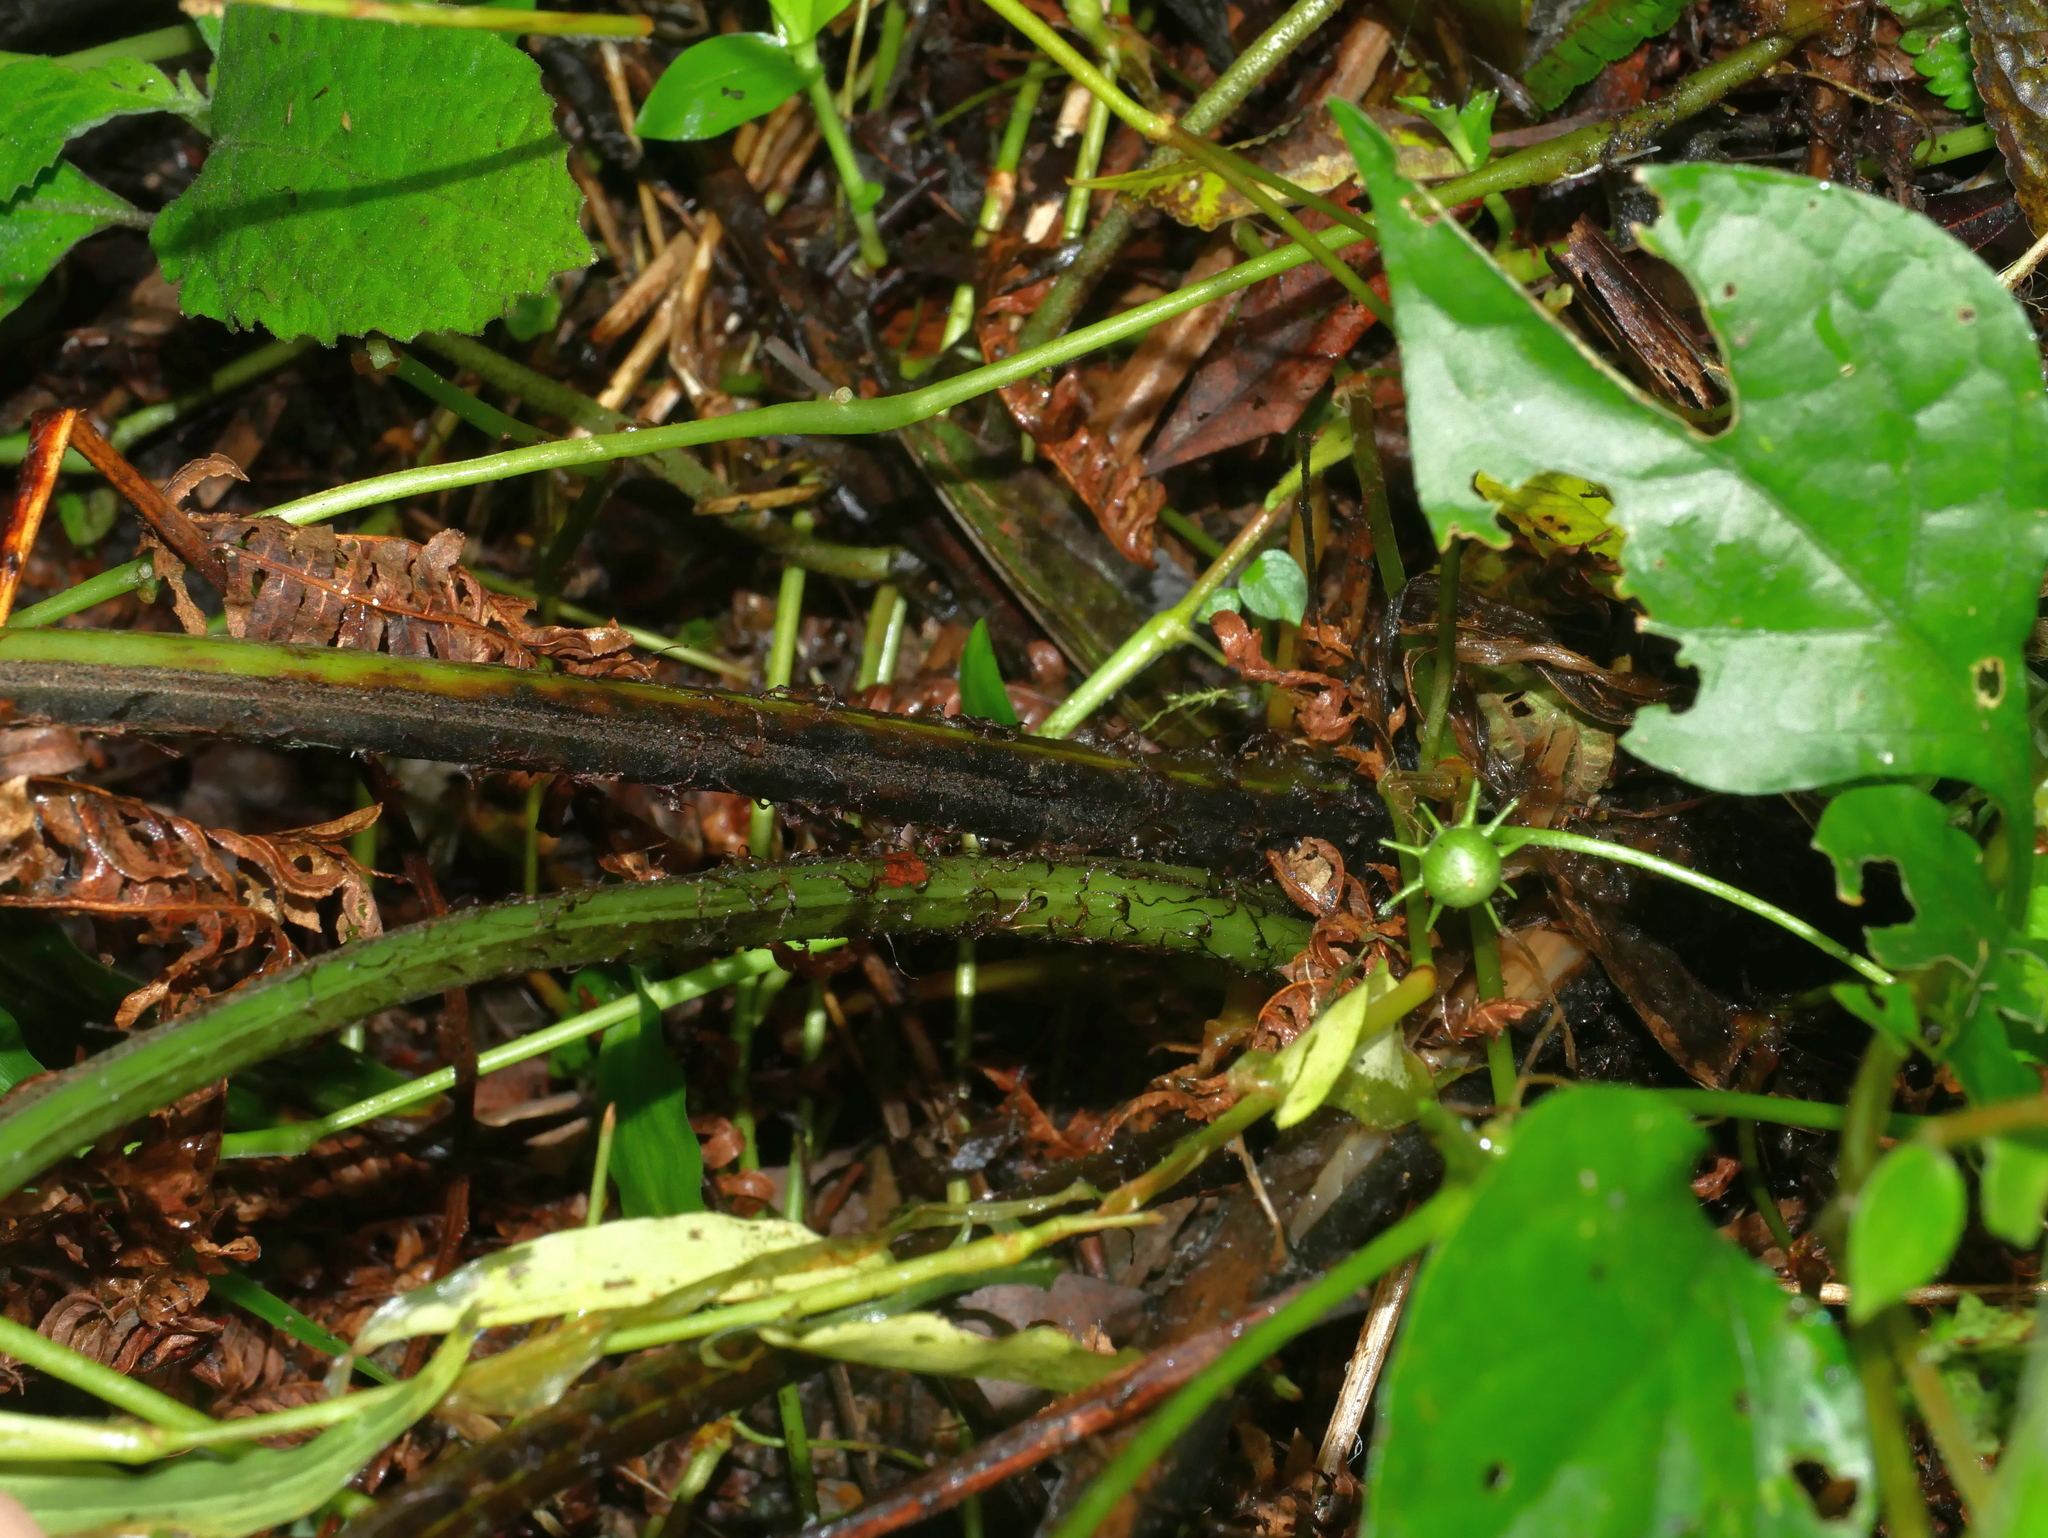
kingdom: Plantae
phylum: Tracheophyta
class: Polypodiopsida
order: Polypodiales
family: Athyriaceae
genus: Deparia
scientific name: Deparia boryana
